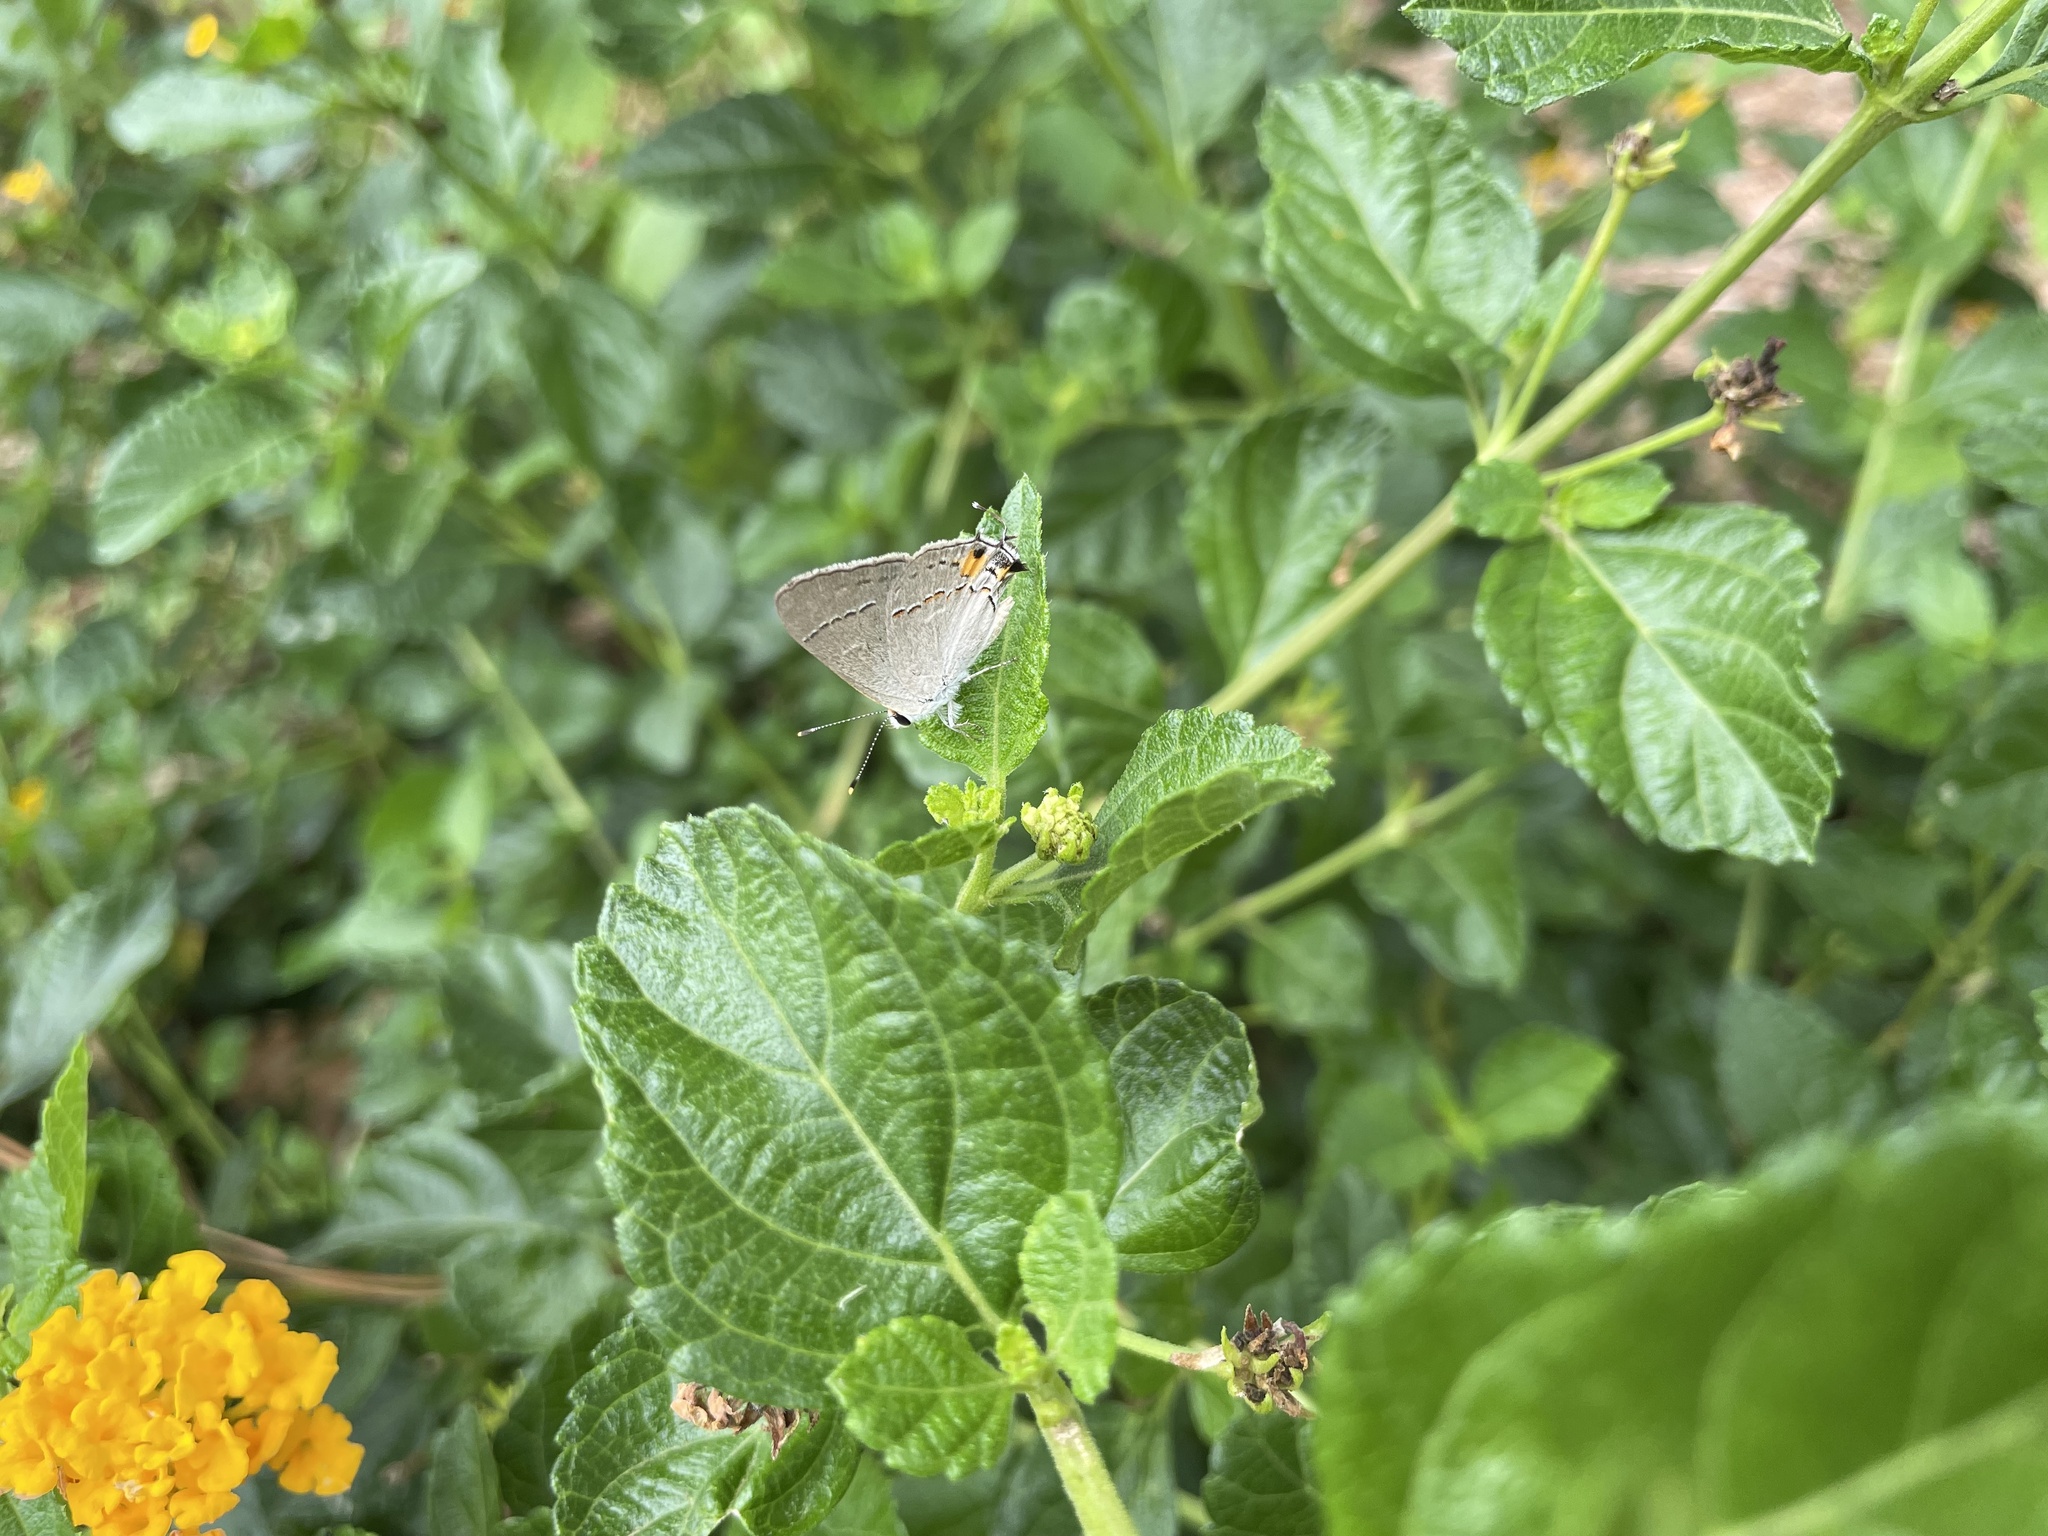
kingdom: Animalia
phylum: Arthropoda
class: Insecta
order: Lepidoptera
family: Lycaenidae
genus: Strymon
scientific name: Strymon melinus
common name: Gray hairstreak
